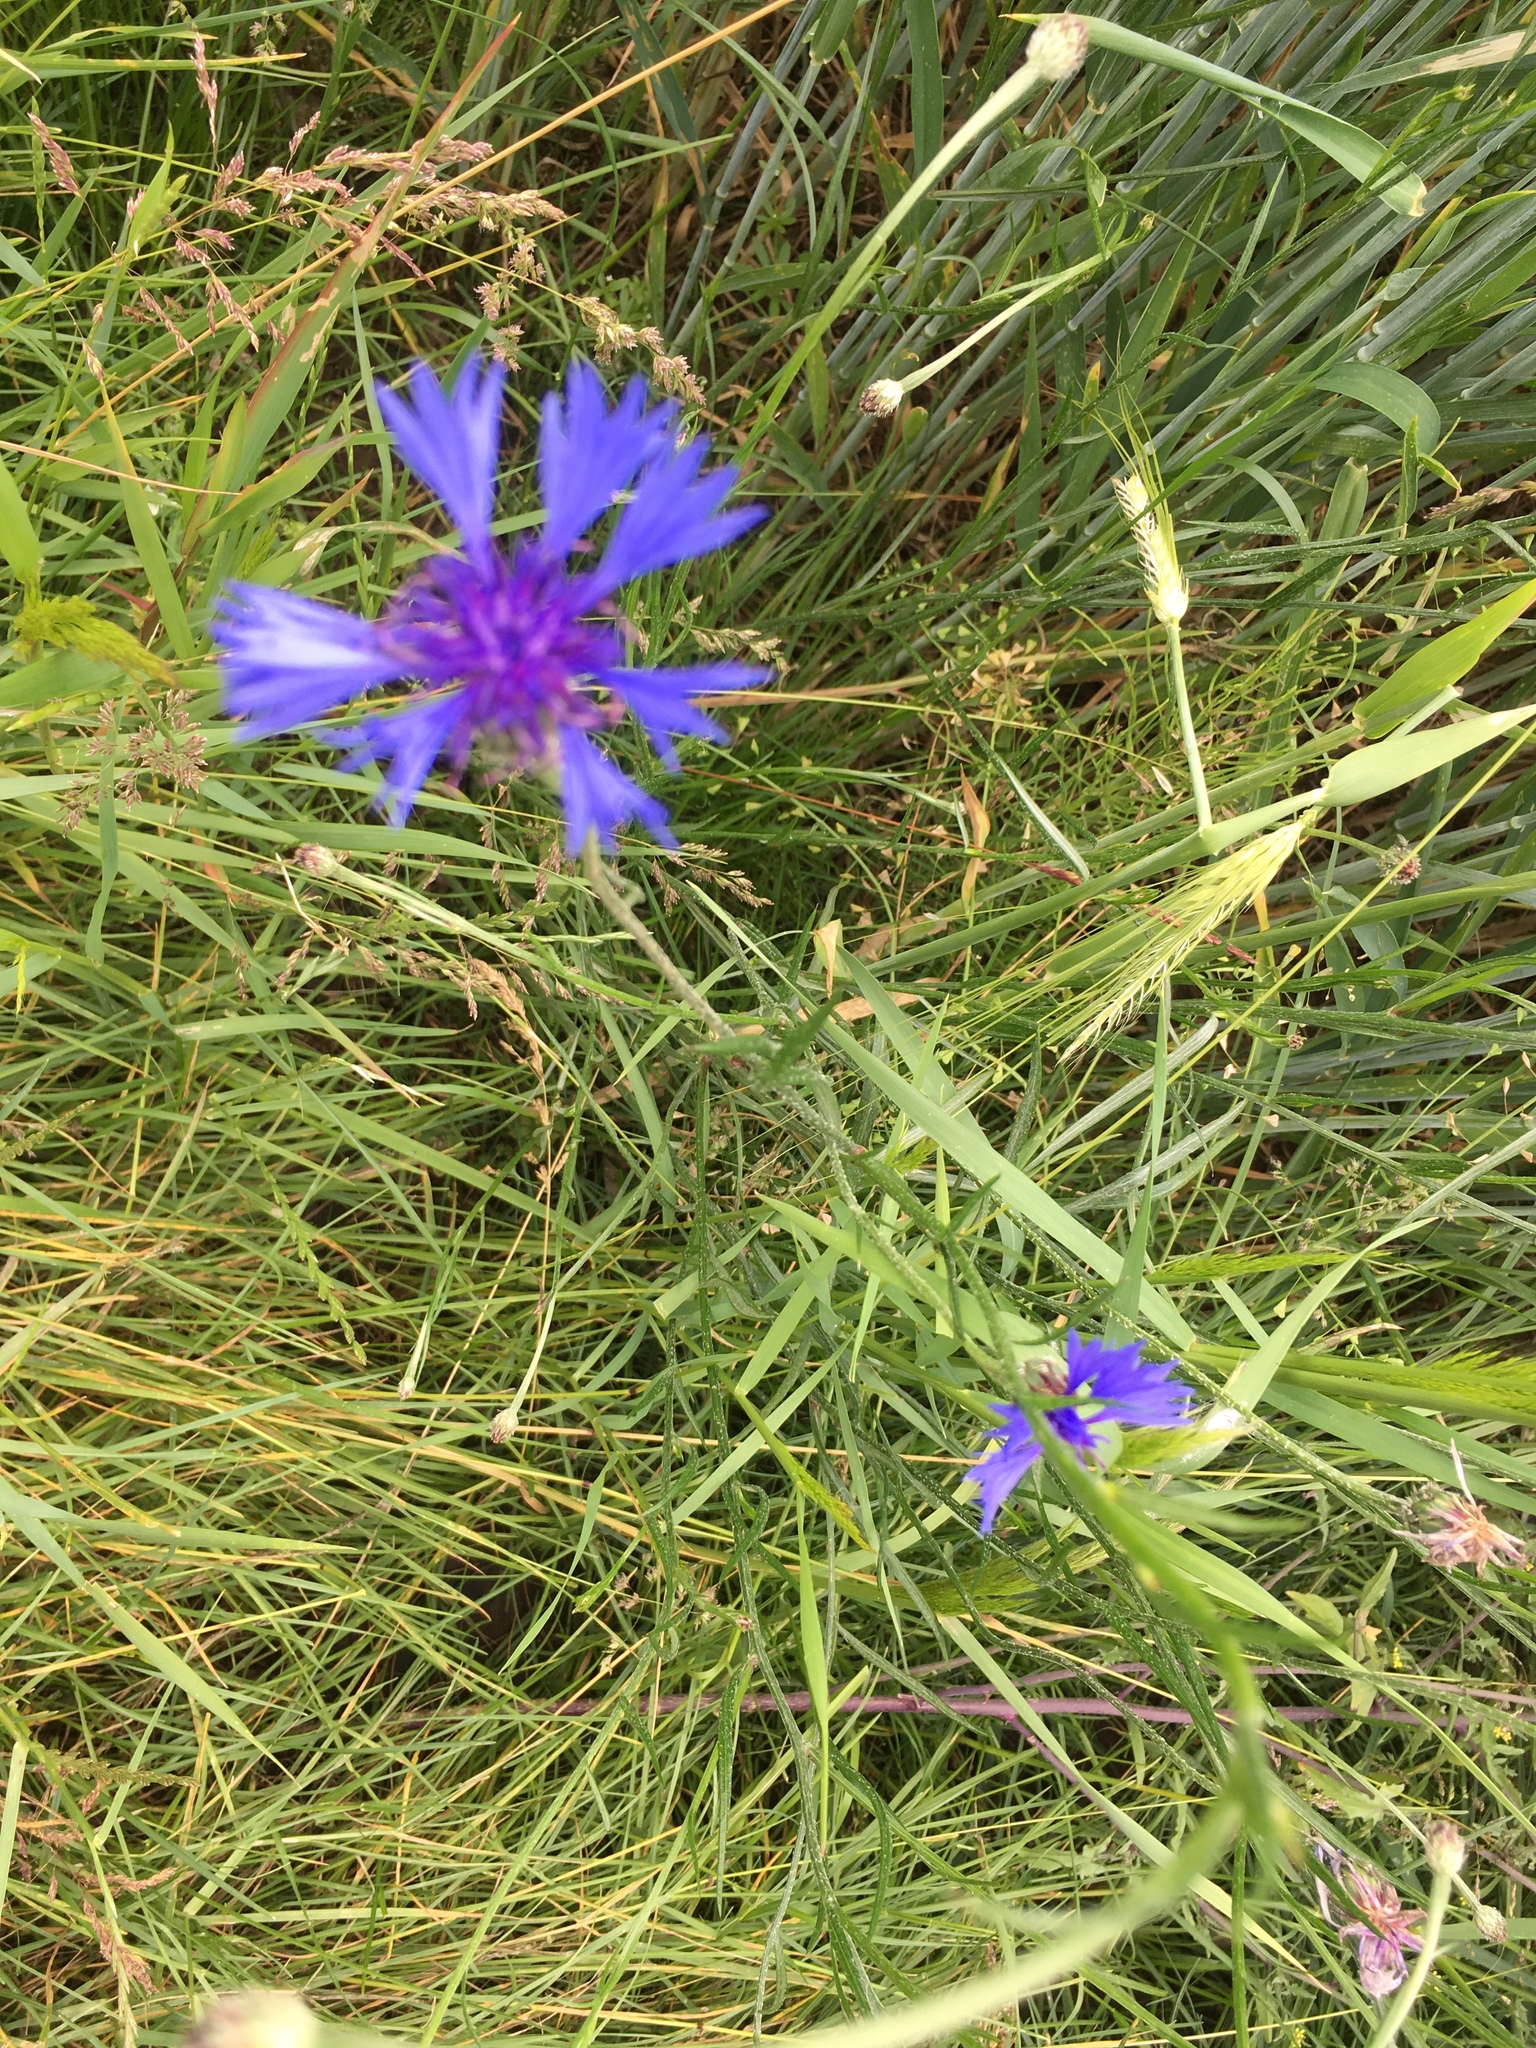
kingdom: Plantae
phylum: Tracheophyta
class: Magnoliopsida
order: Asterales
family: Asteraceae
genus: Centaurea
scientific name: Centaurea cyanus
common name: Cornflower
